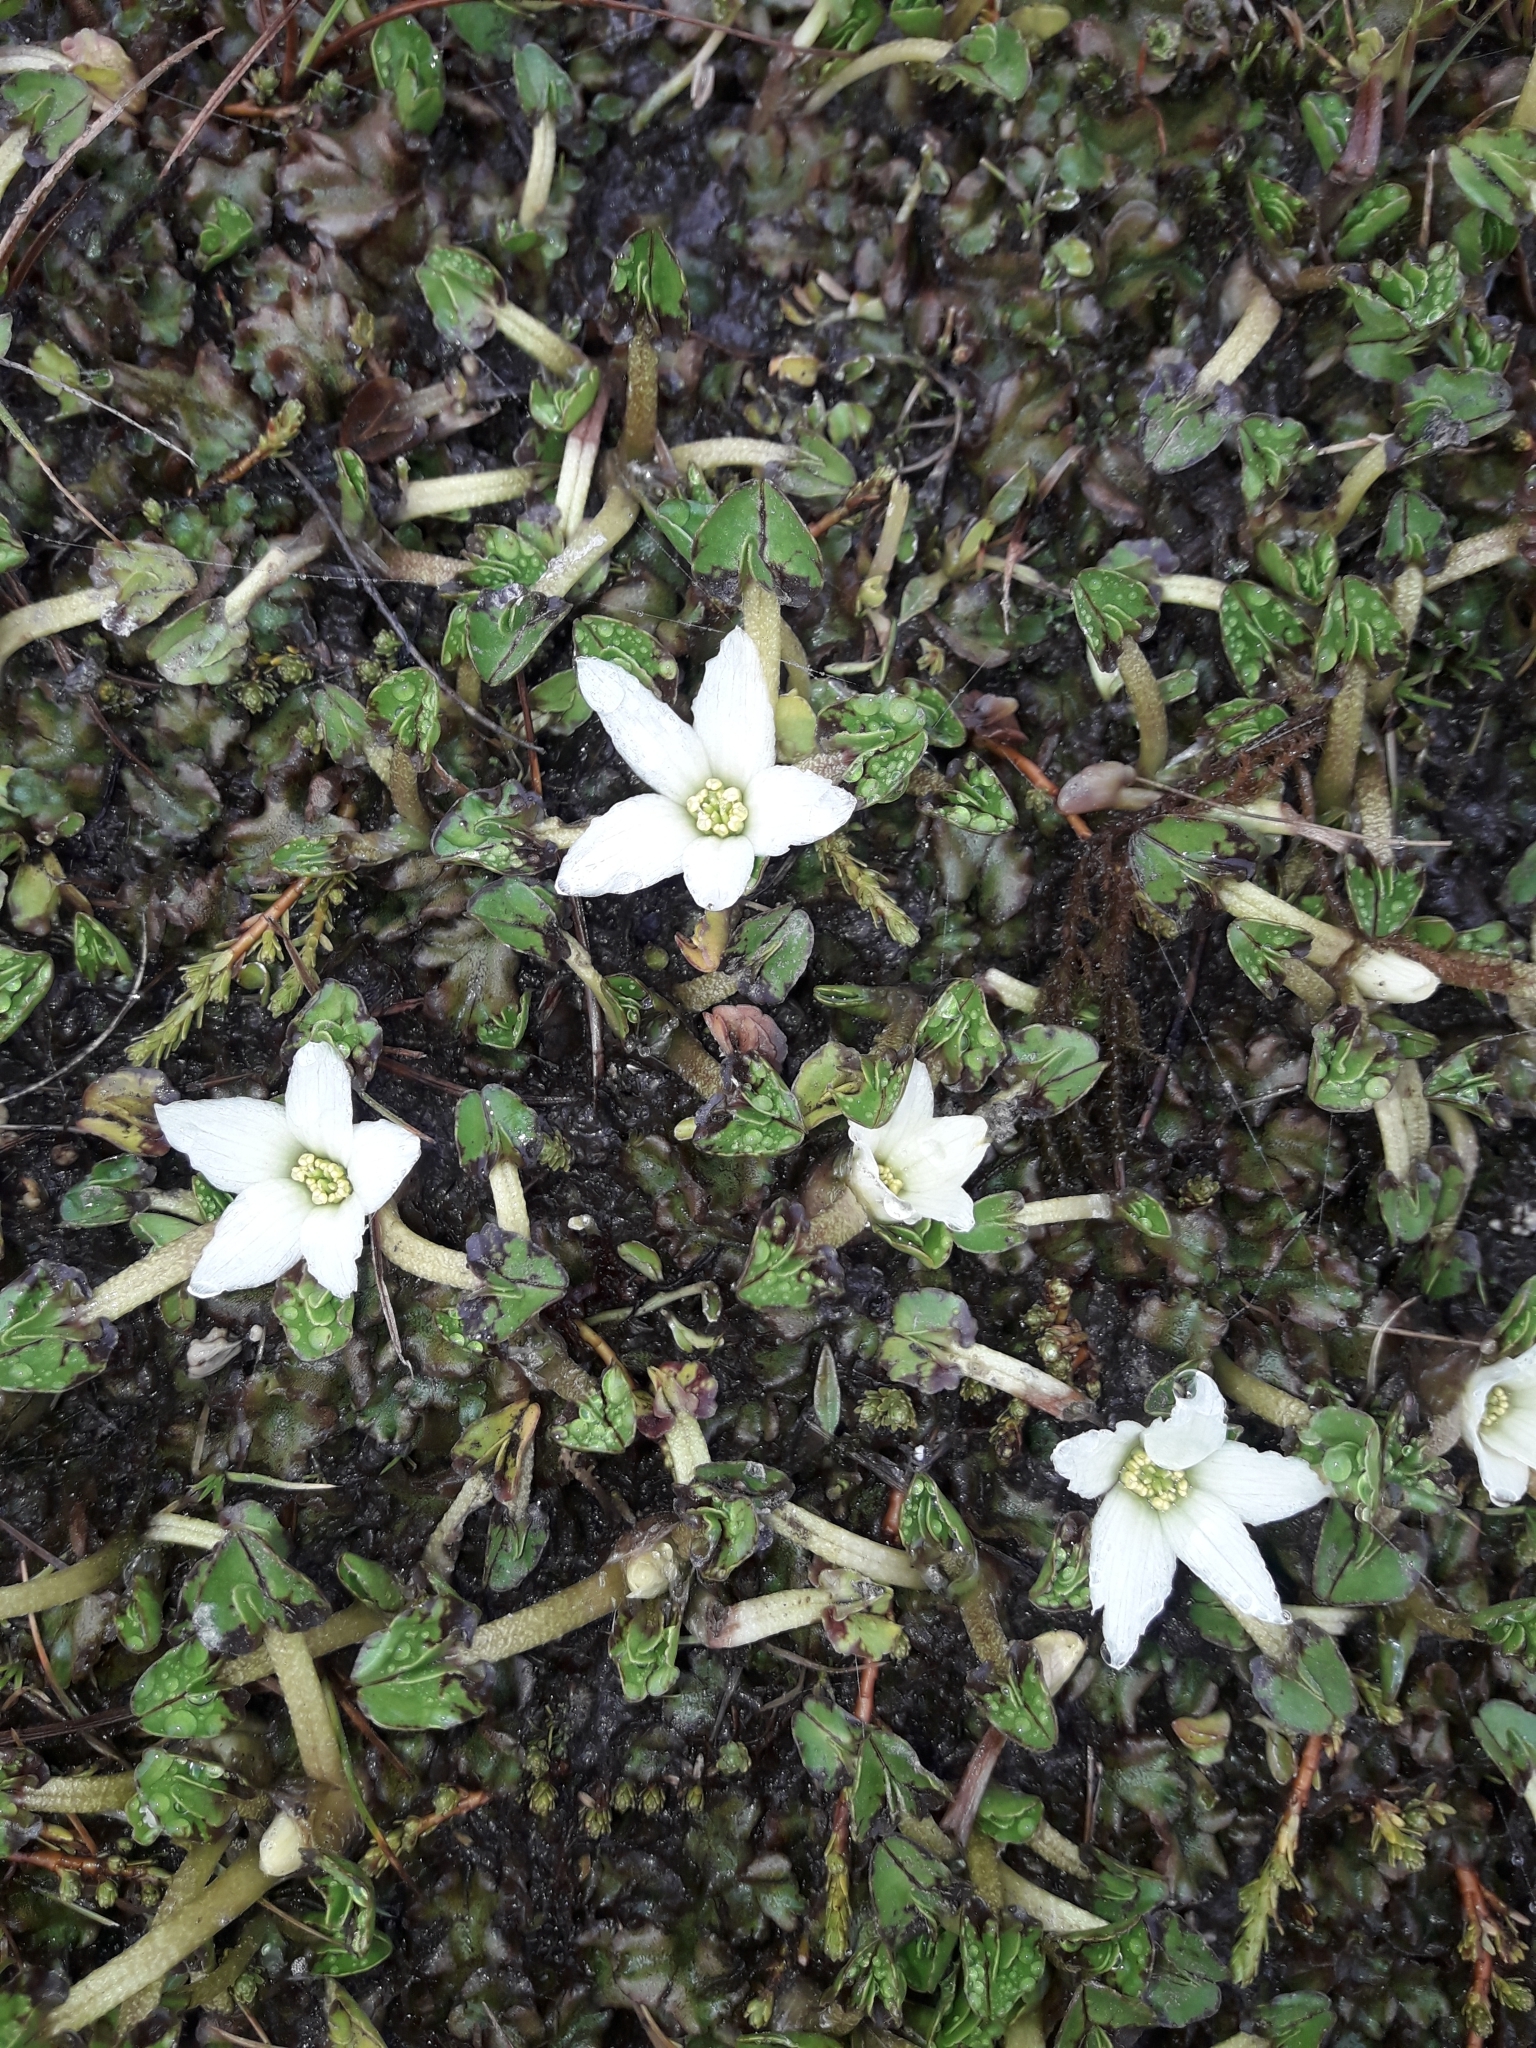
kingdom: Plantae
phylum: Tracheophyta
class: Magnoliopsida
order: Ranunculales
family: Ranunculaceae
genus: Caltha
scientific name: Caltha obtusa
